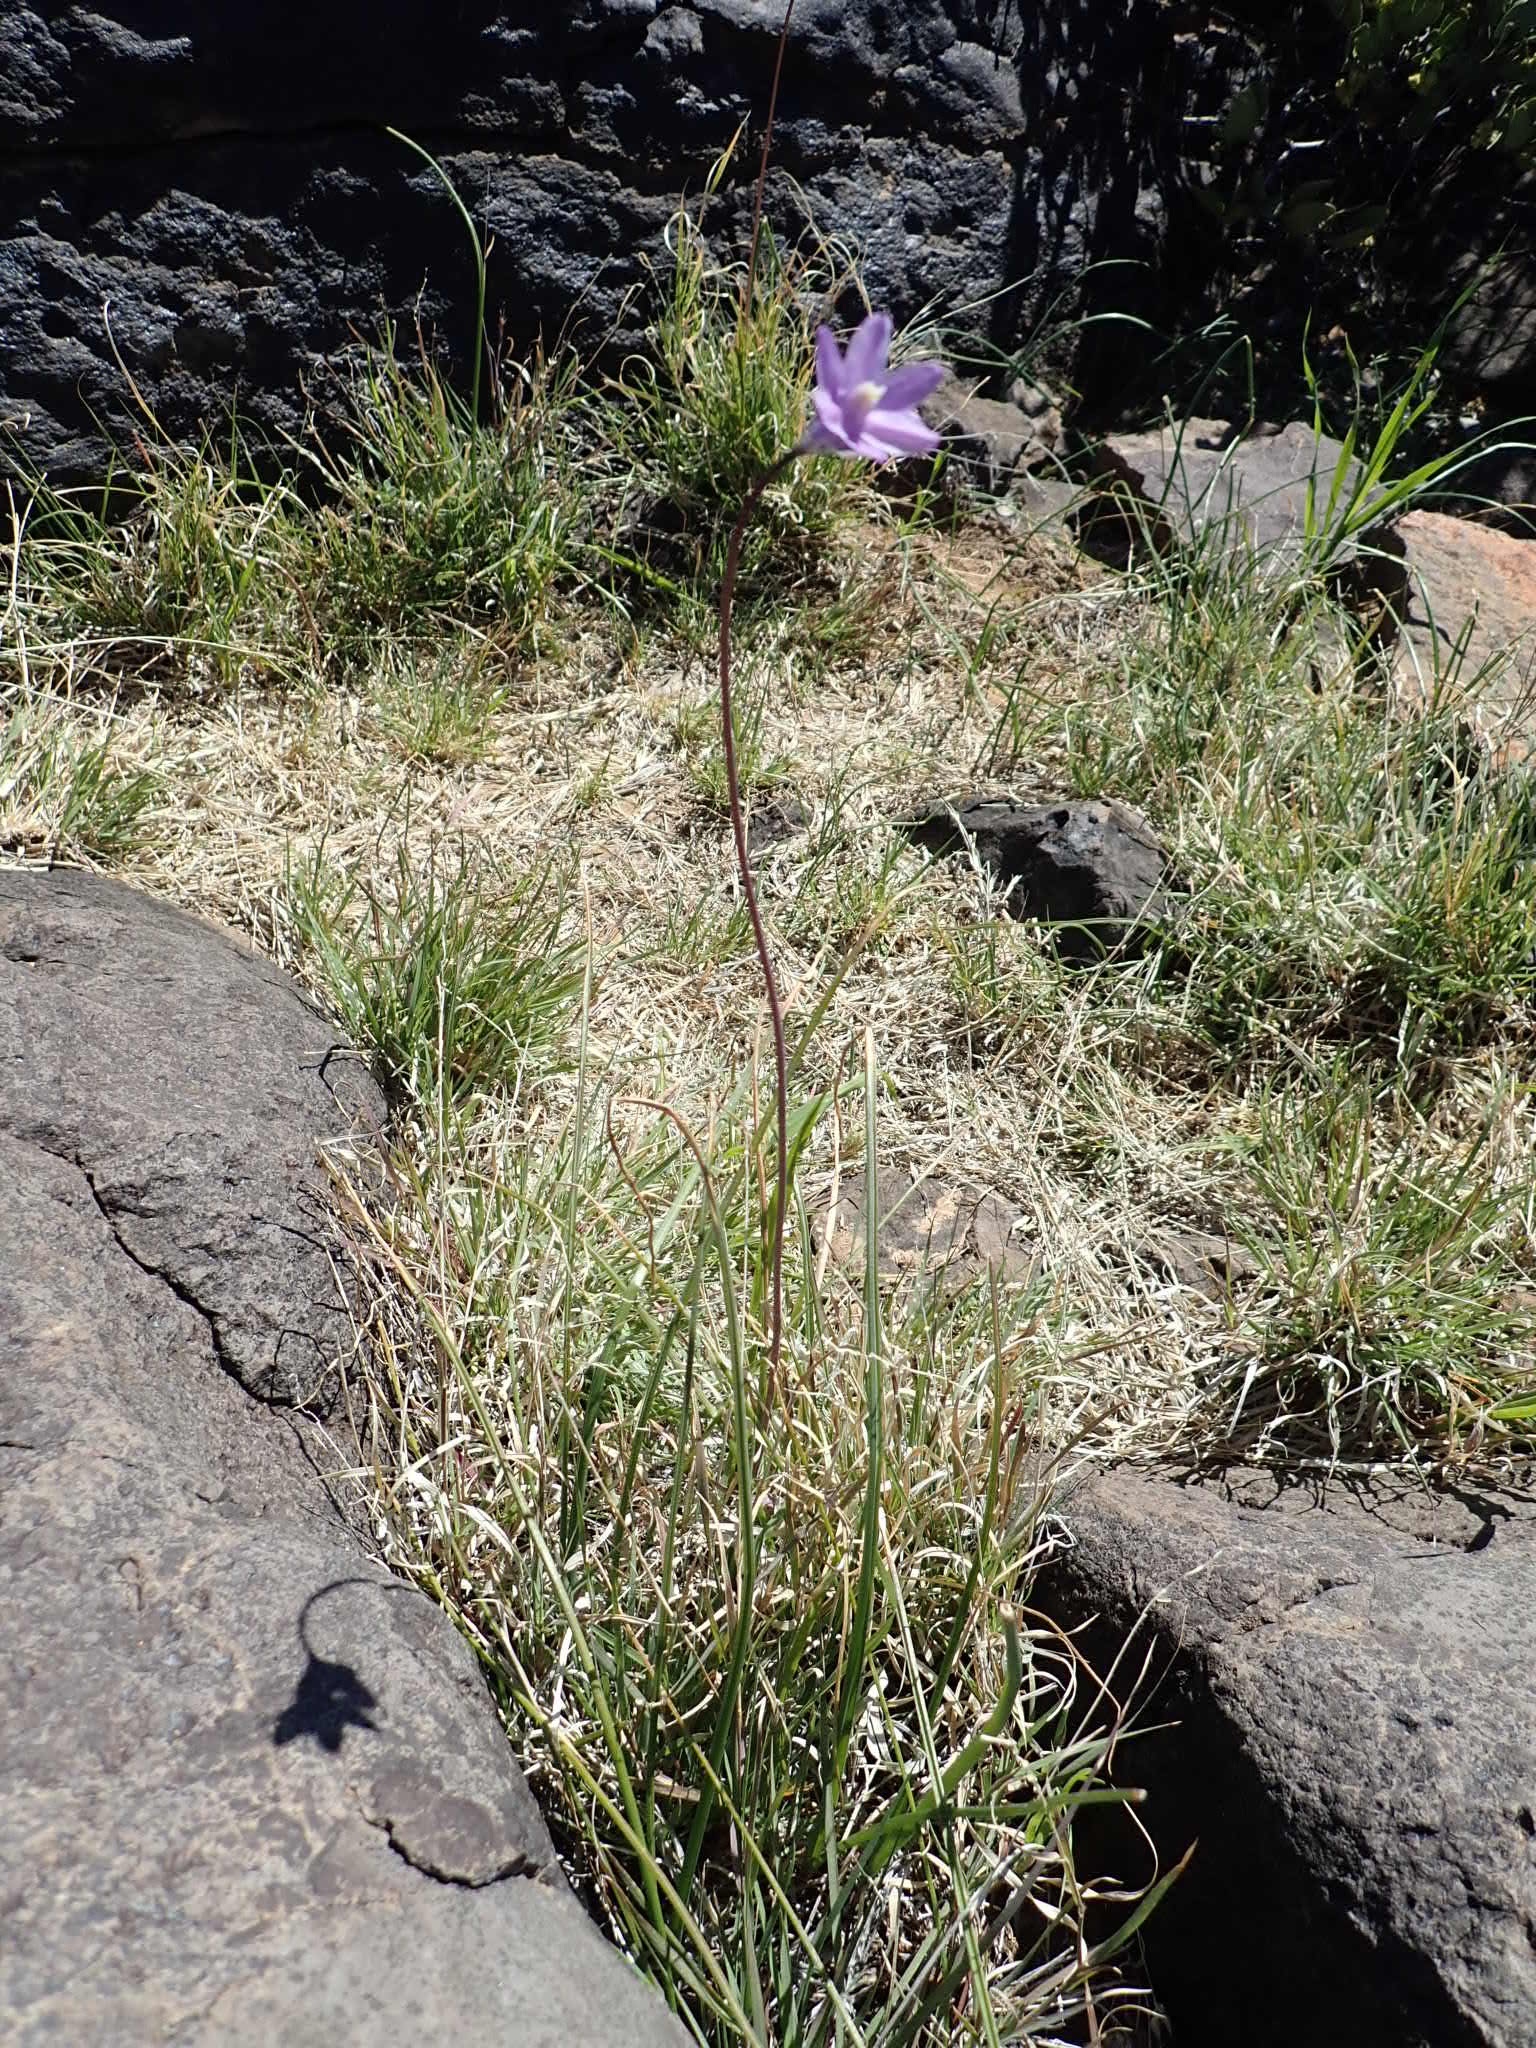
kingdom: Plantae
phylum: Tracheophyta
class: Liliopsida
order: Asparagales
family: Asparagaceae
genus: Dipterostemon
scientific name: Dipterostemon capitatus
